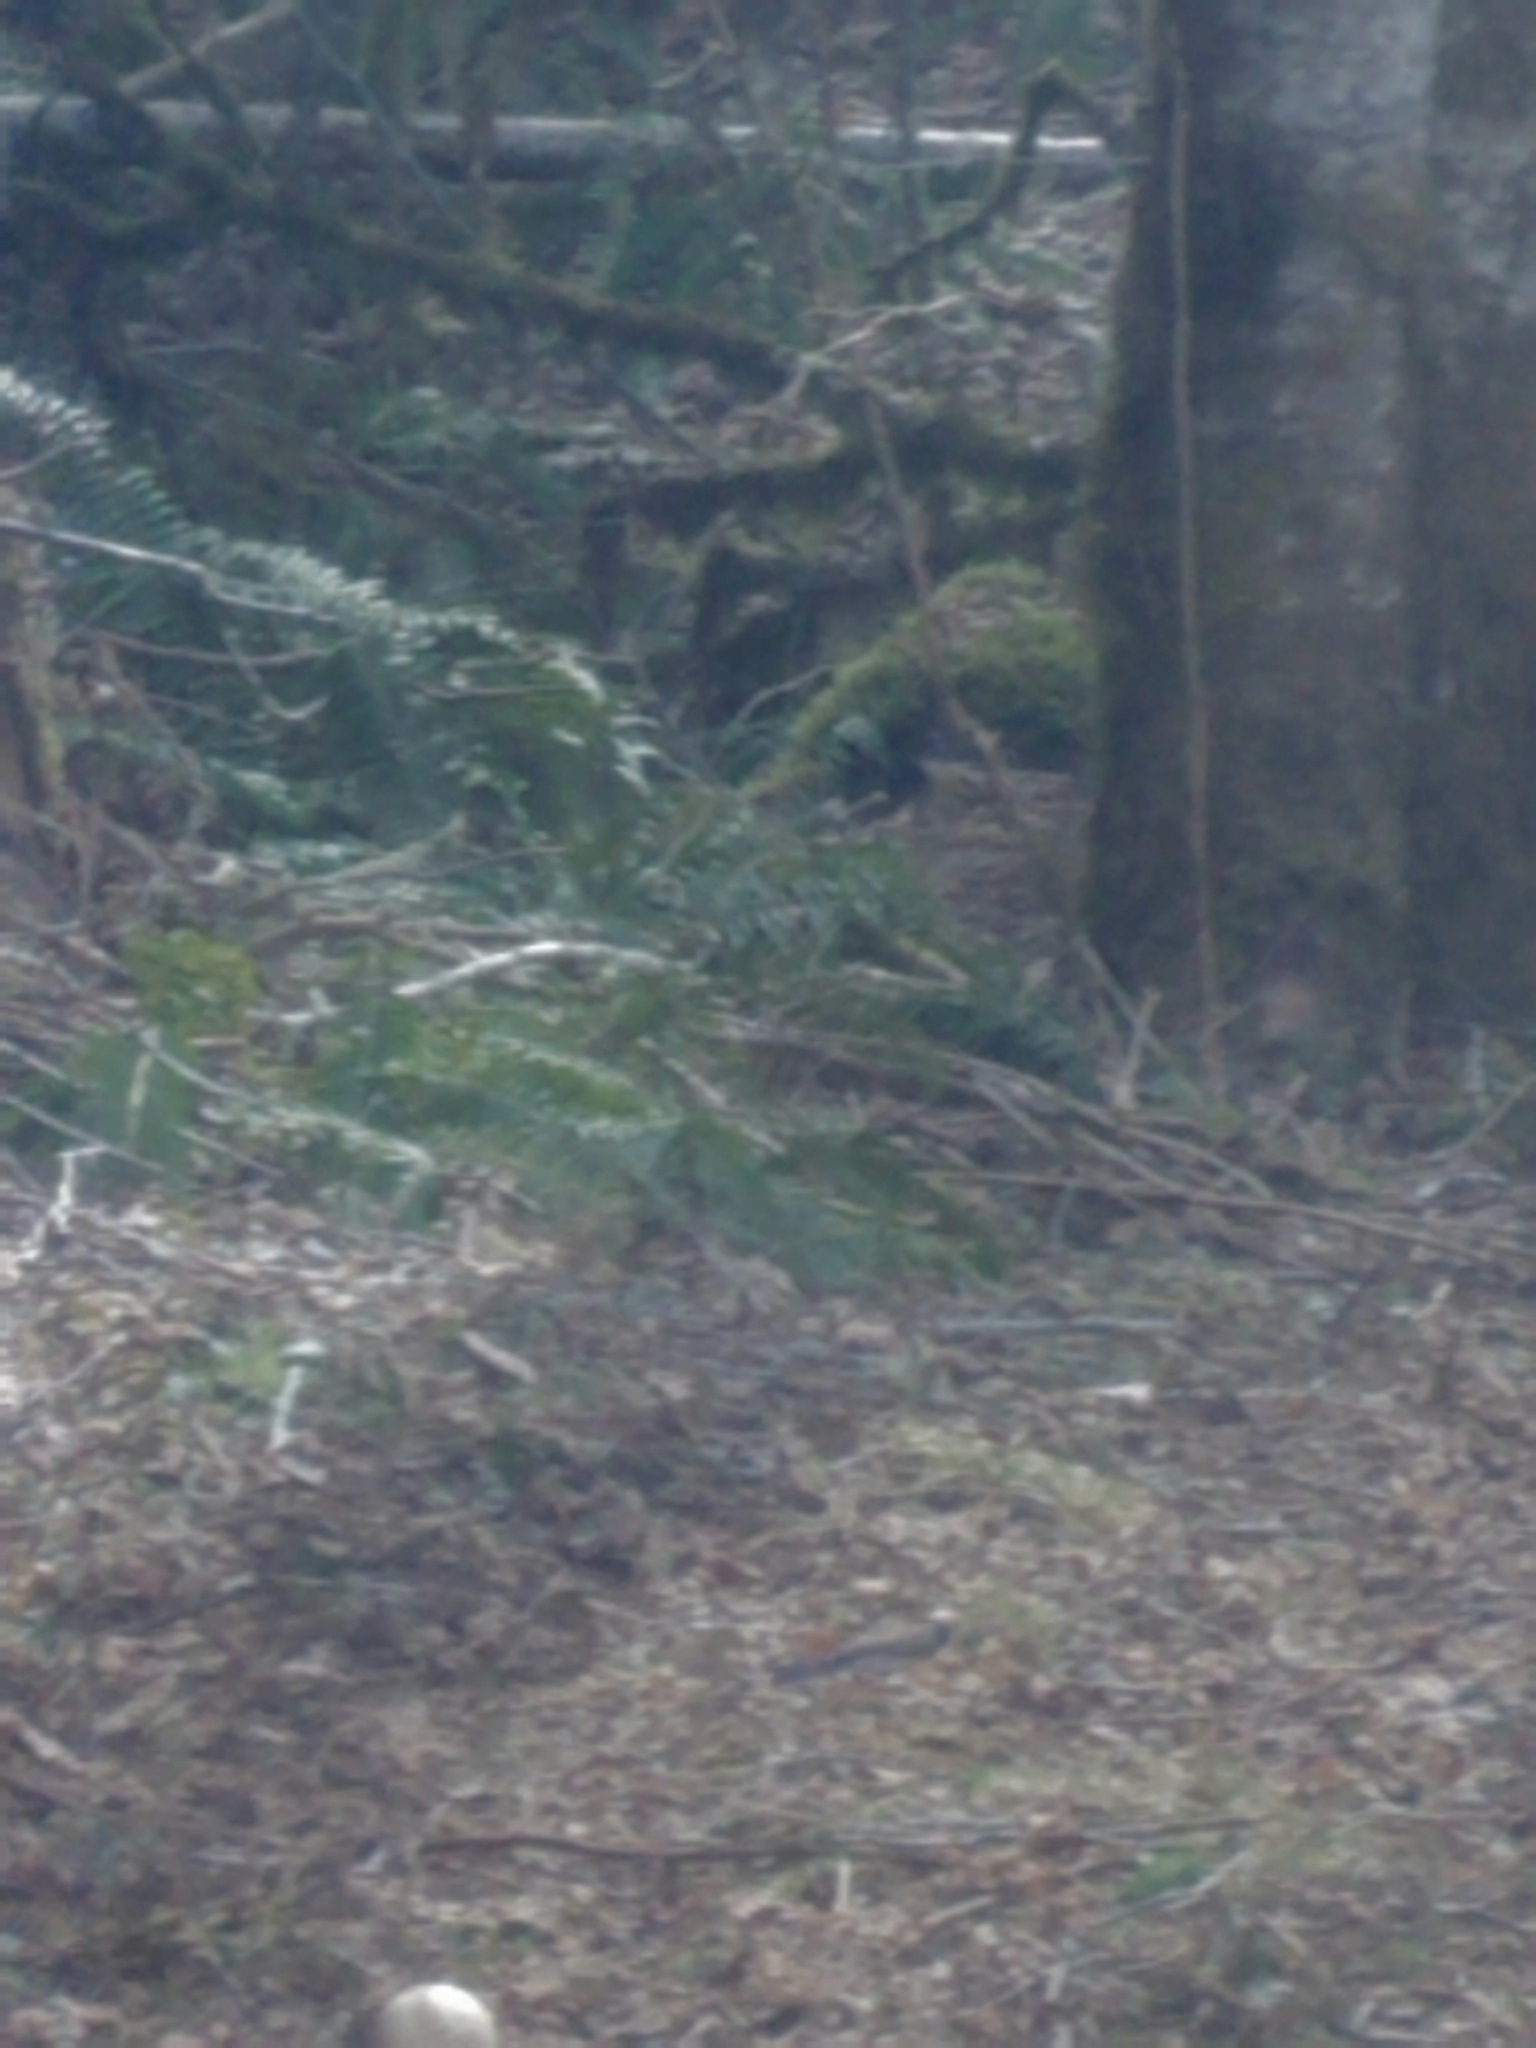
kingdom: Animalia
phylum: Chordata
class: Aves
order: Passeriformes
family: Passerellidae
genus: Junco
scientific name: Junco hyemalis
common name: Dark-eyed junco
